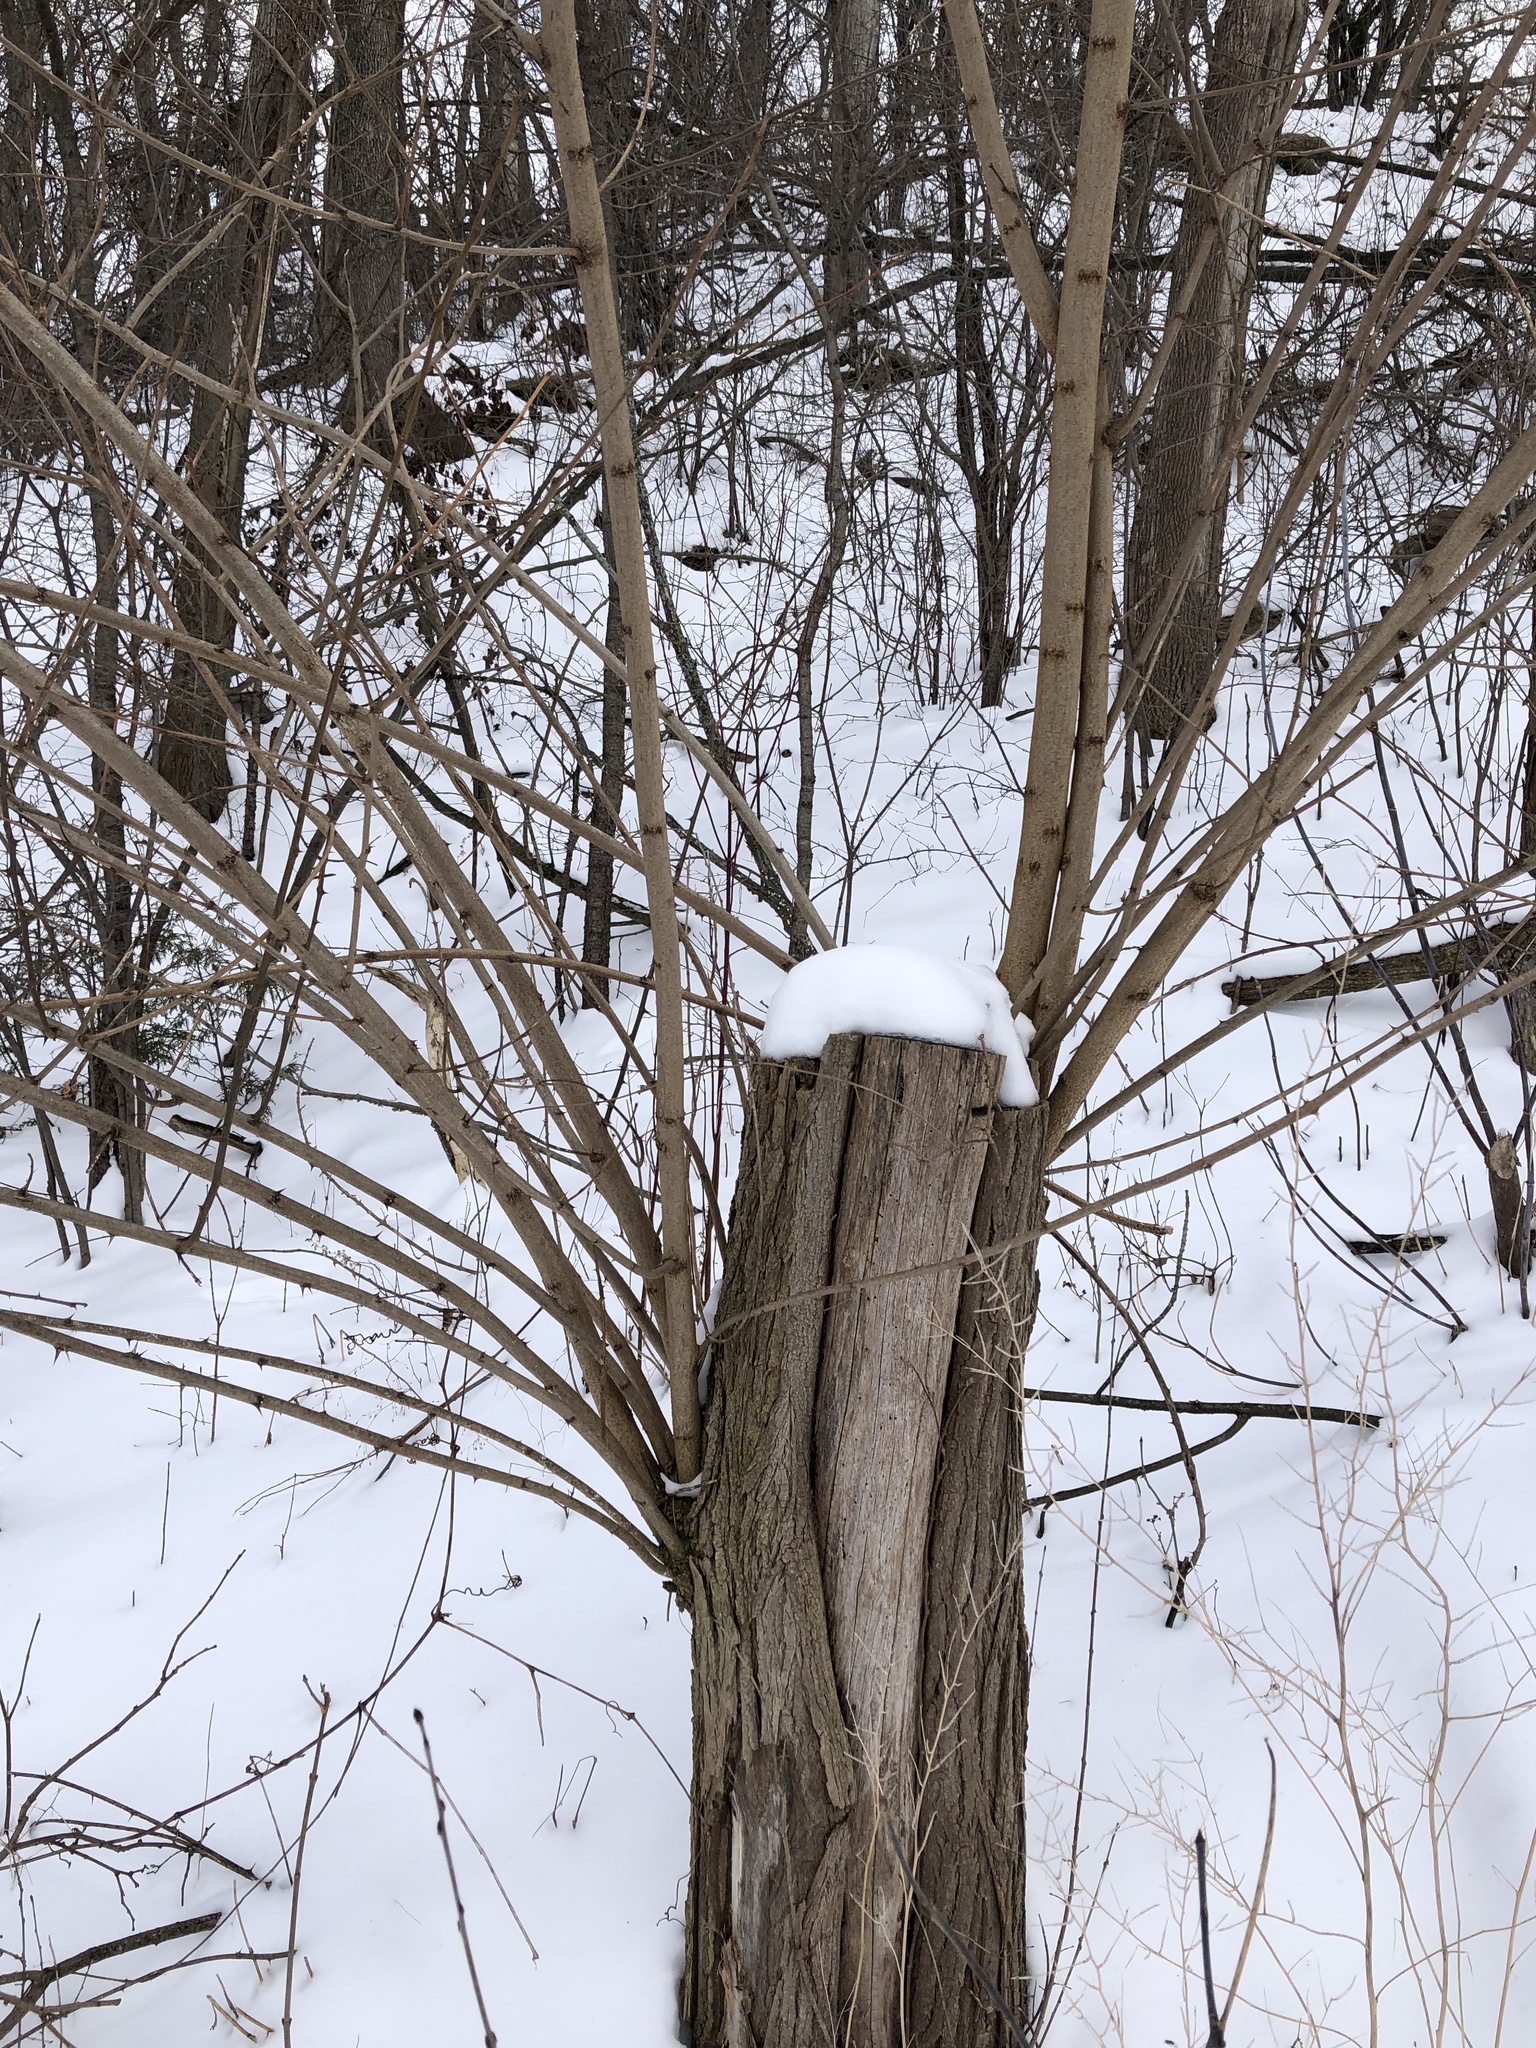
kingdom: Plantae
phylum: Tracheophyta
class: Magnoliopsida
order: Fabales
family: Fabaceae
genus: Robinia
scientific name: Robinia pseudoacacia
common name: Black locust
